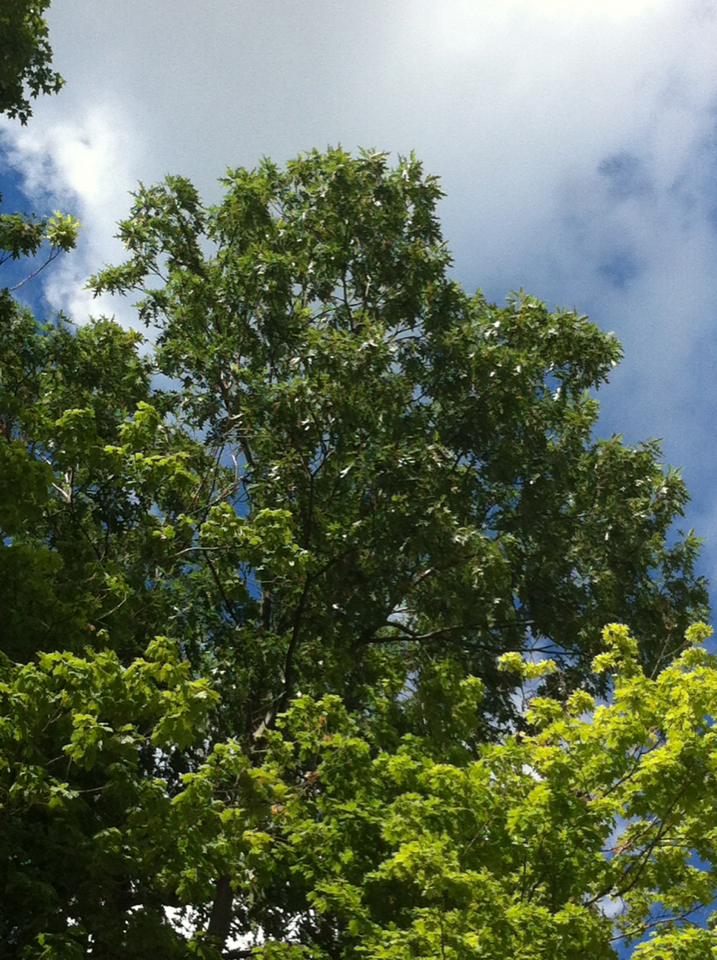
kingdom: Plantae
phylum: Tracheophyta
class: Magnoliopsida
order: Fagales
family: Fagaceae
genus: Quercus
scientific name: Quercus rubra
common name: Red oak
